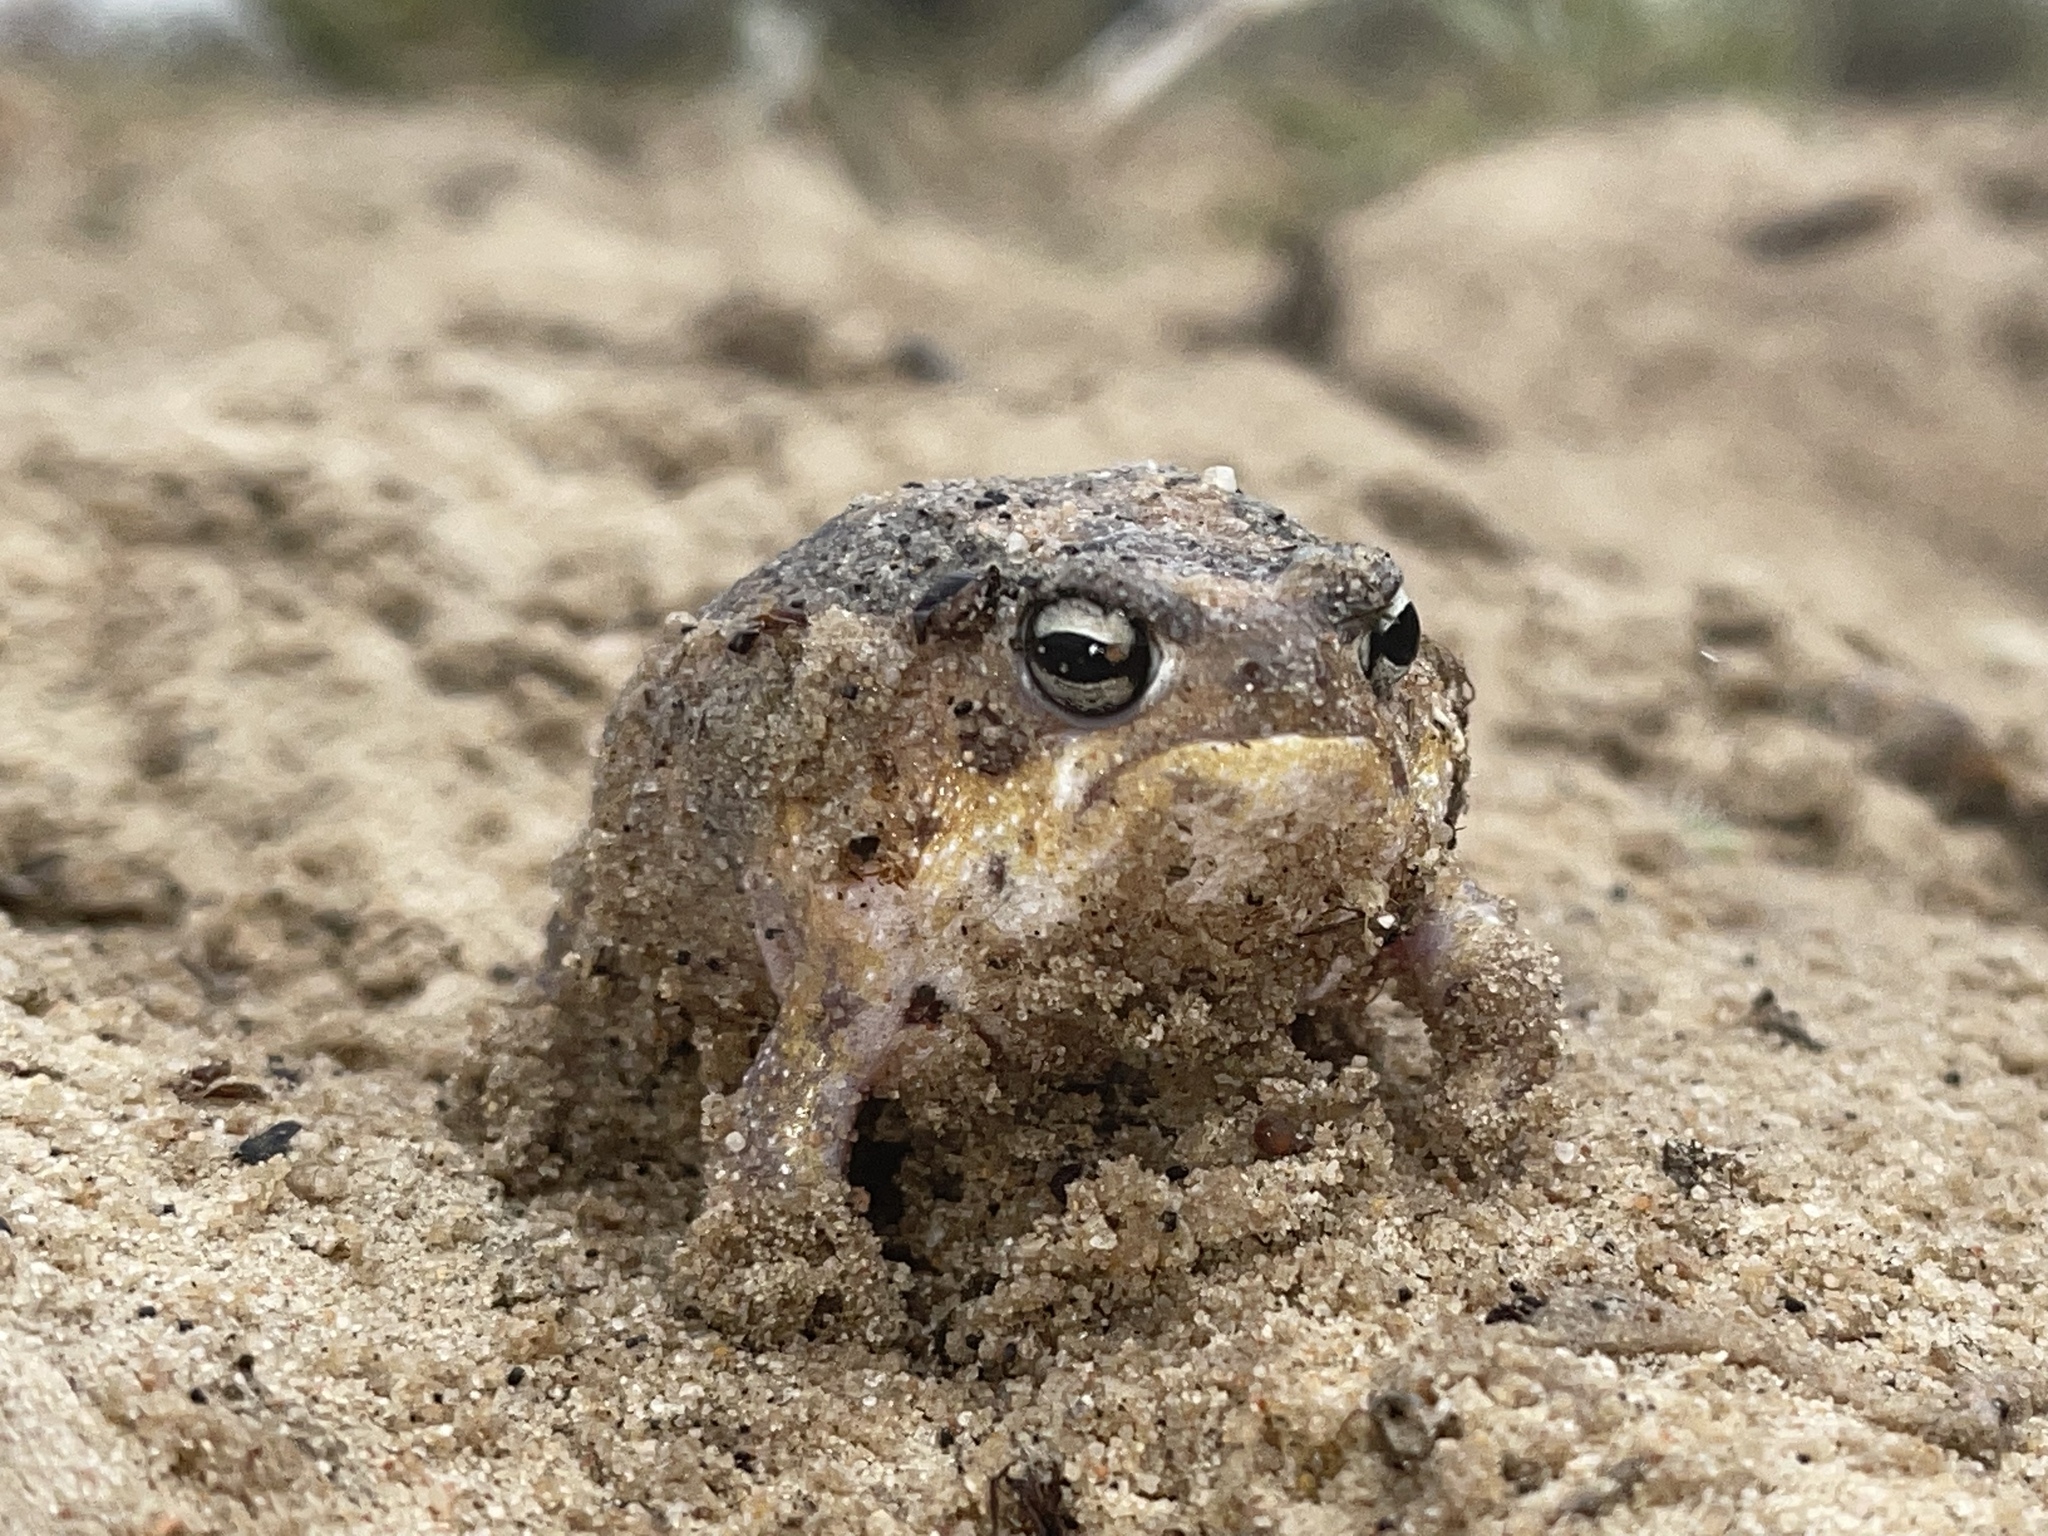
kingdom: Animalia
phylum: Chordata
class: Amphibia
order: Anura
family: Brevicipitidae
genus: Breviceps
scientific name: Breviceps namaquensis
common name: Namaqua rain frog
